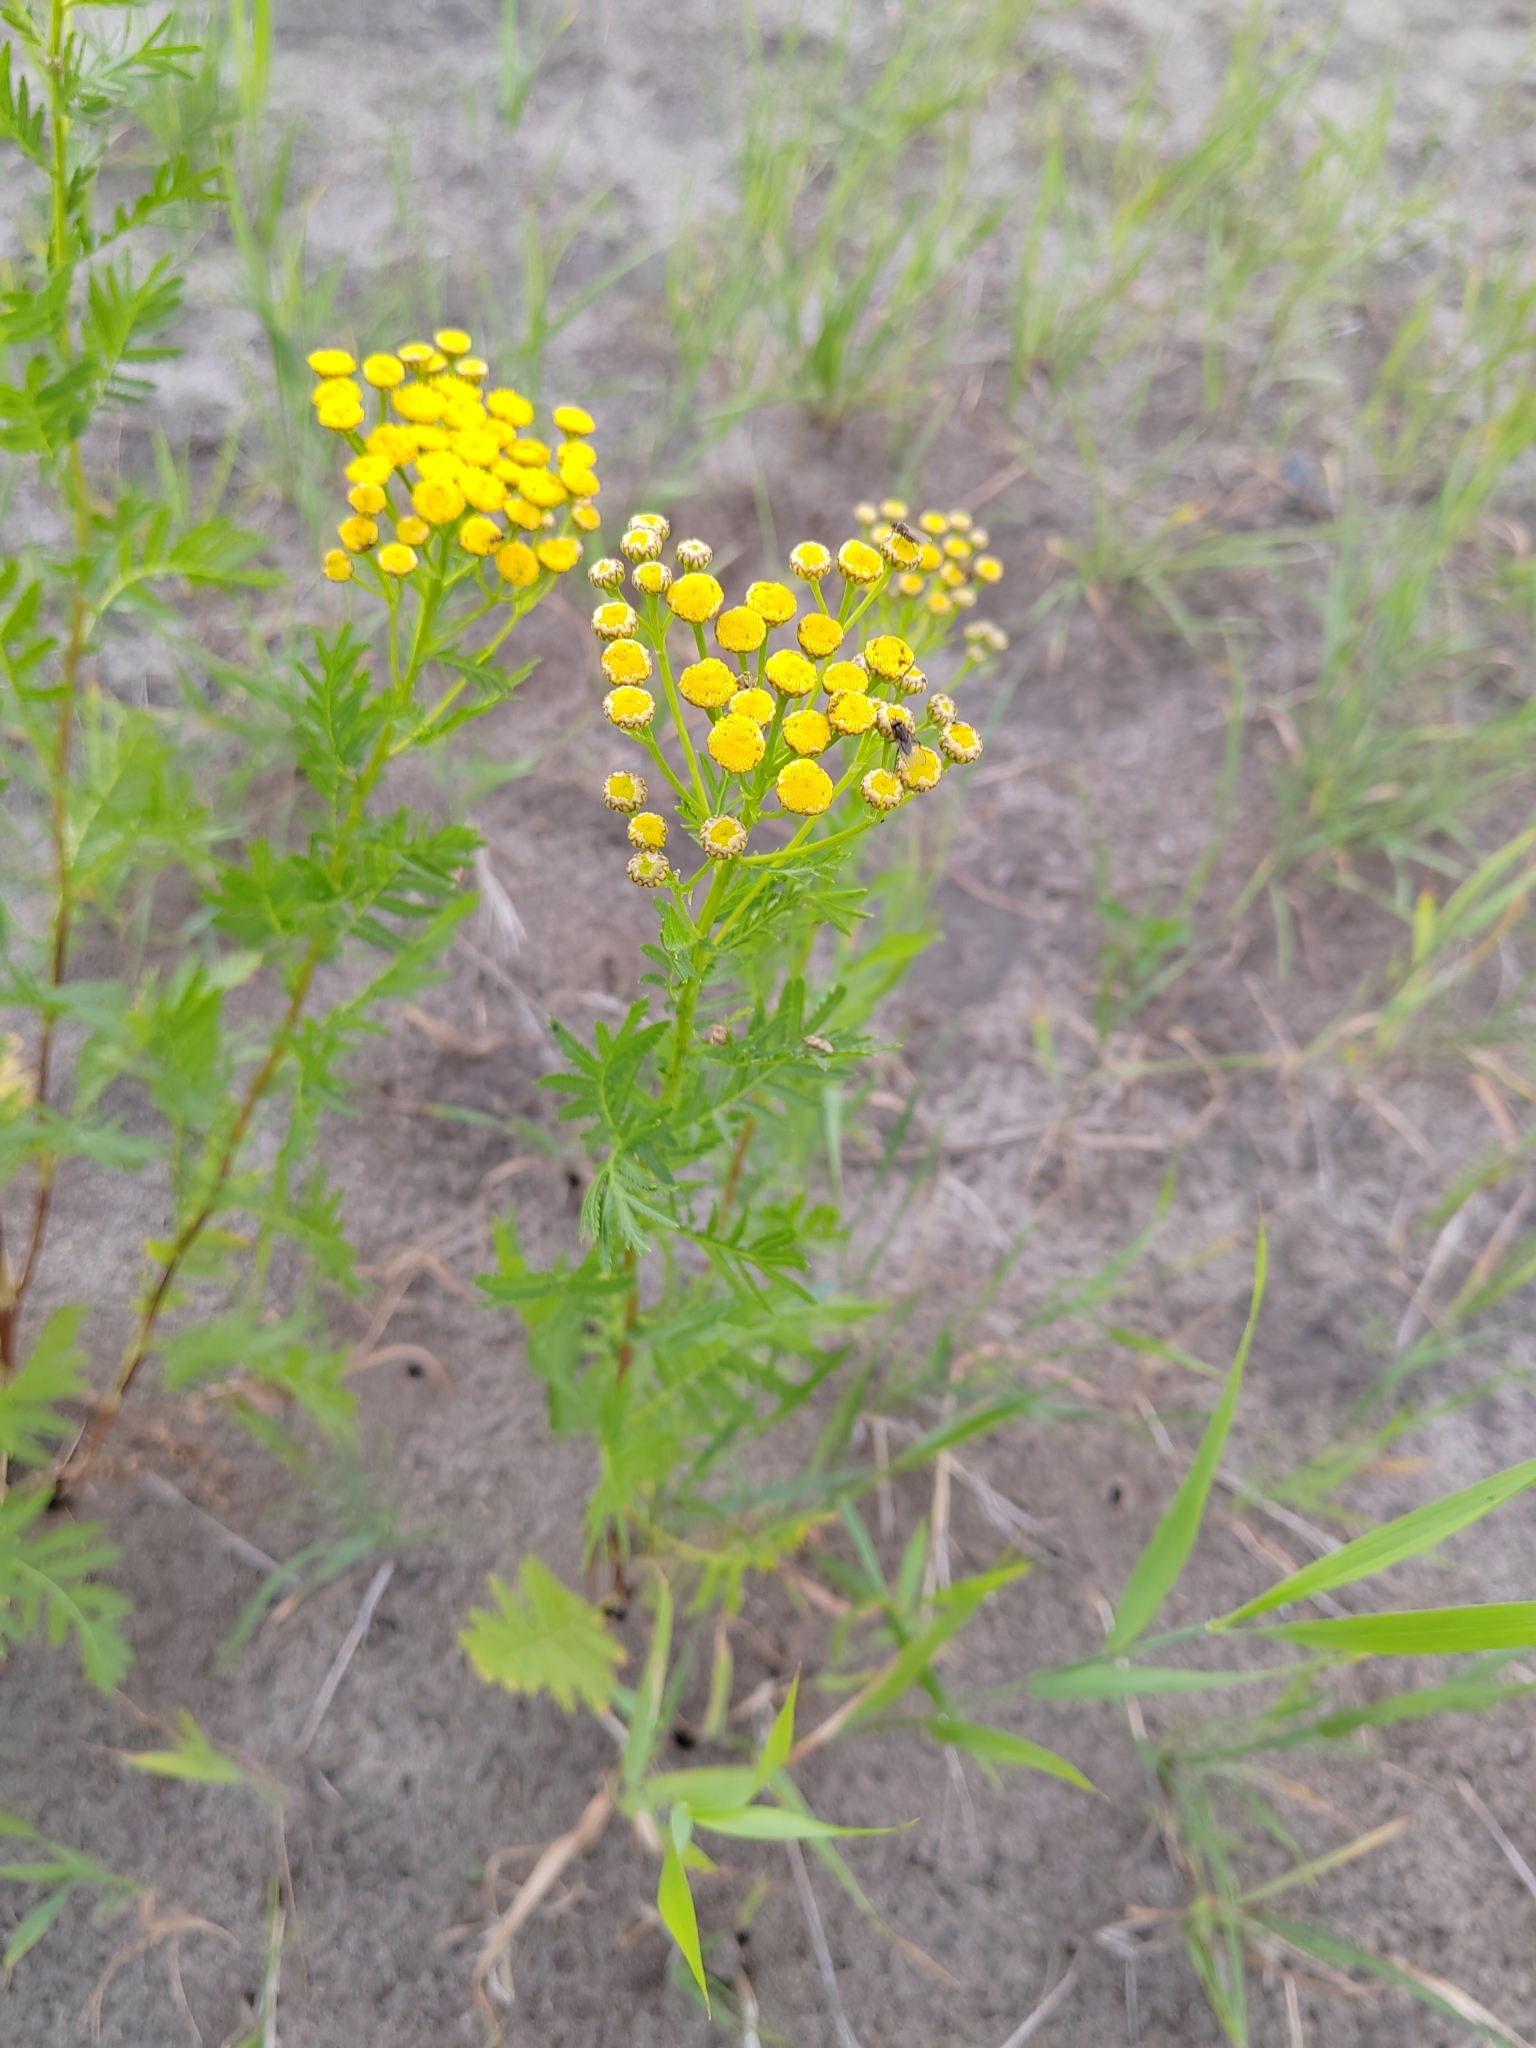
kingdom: Plantae
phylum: Tracheophyta
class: Magnoliopsida
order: Asterales
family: Asteraceae
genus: Tanacetum
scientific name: Tanacetum vulgare
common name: Common tansy
